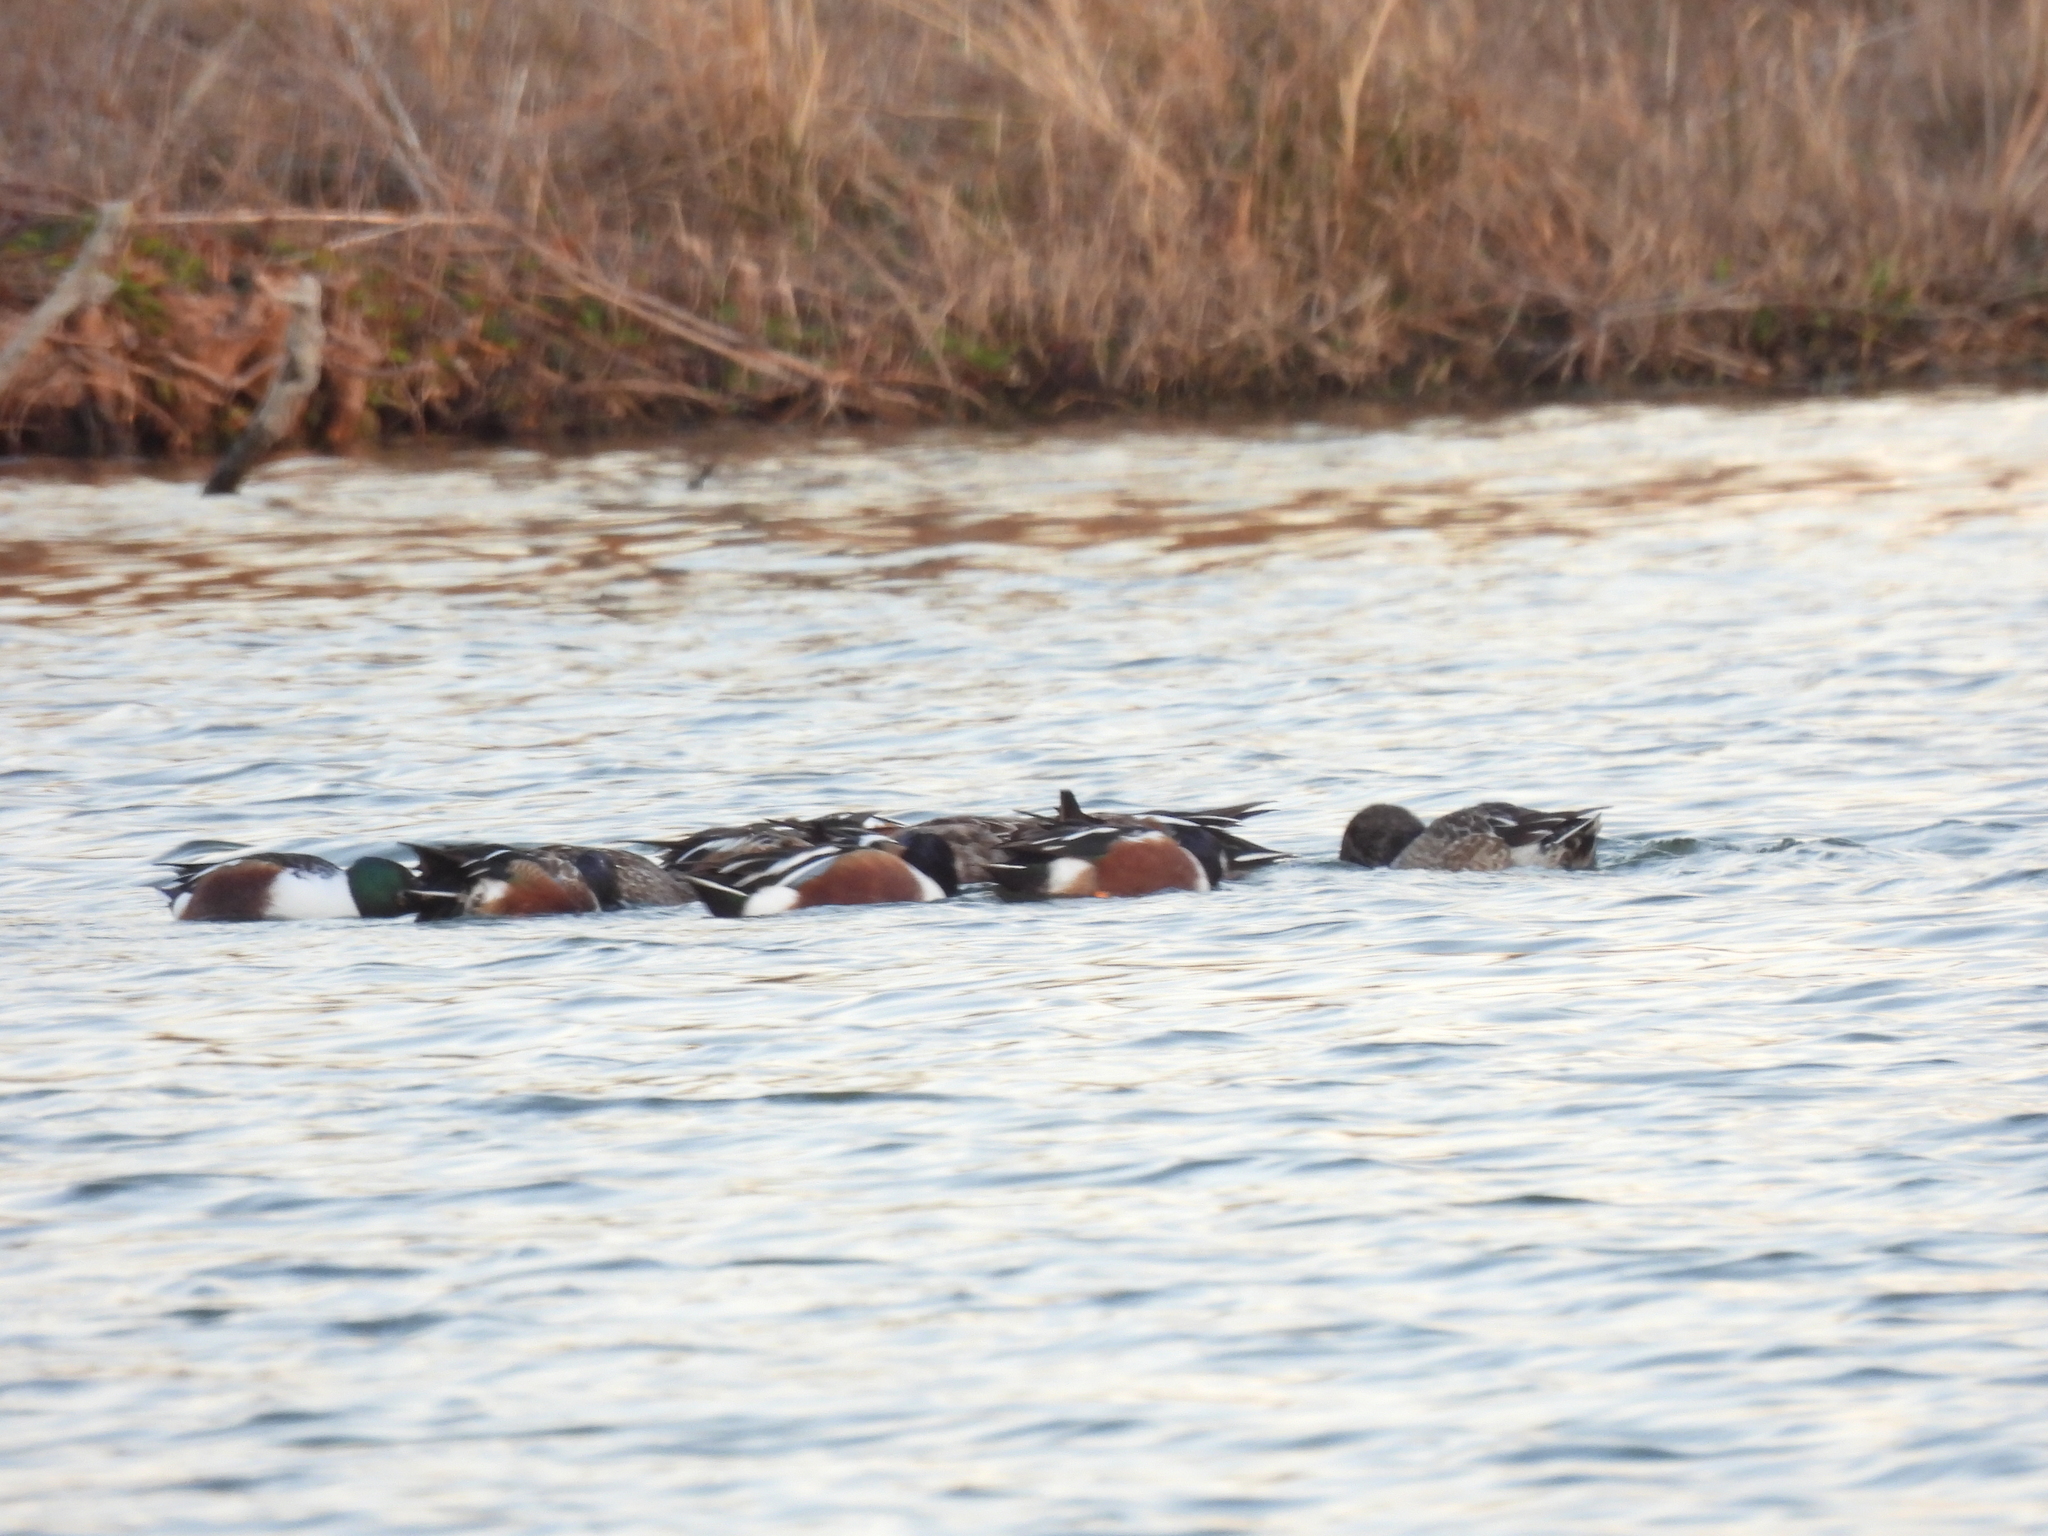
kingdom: Animalia
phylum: Chordata
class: Aves
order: Anseriformes
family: Anatidae
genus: Spatula
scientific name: Spatula clypeata
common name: Northern shoveler
